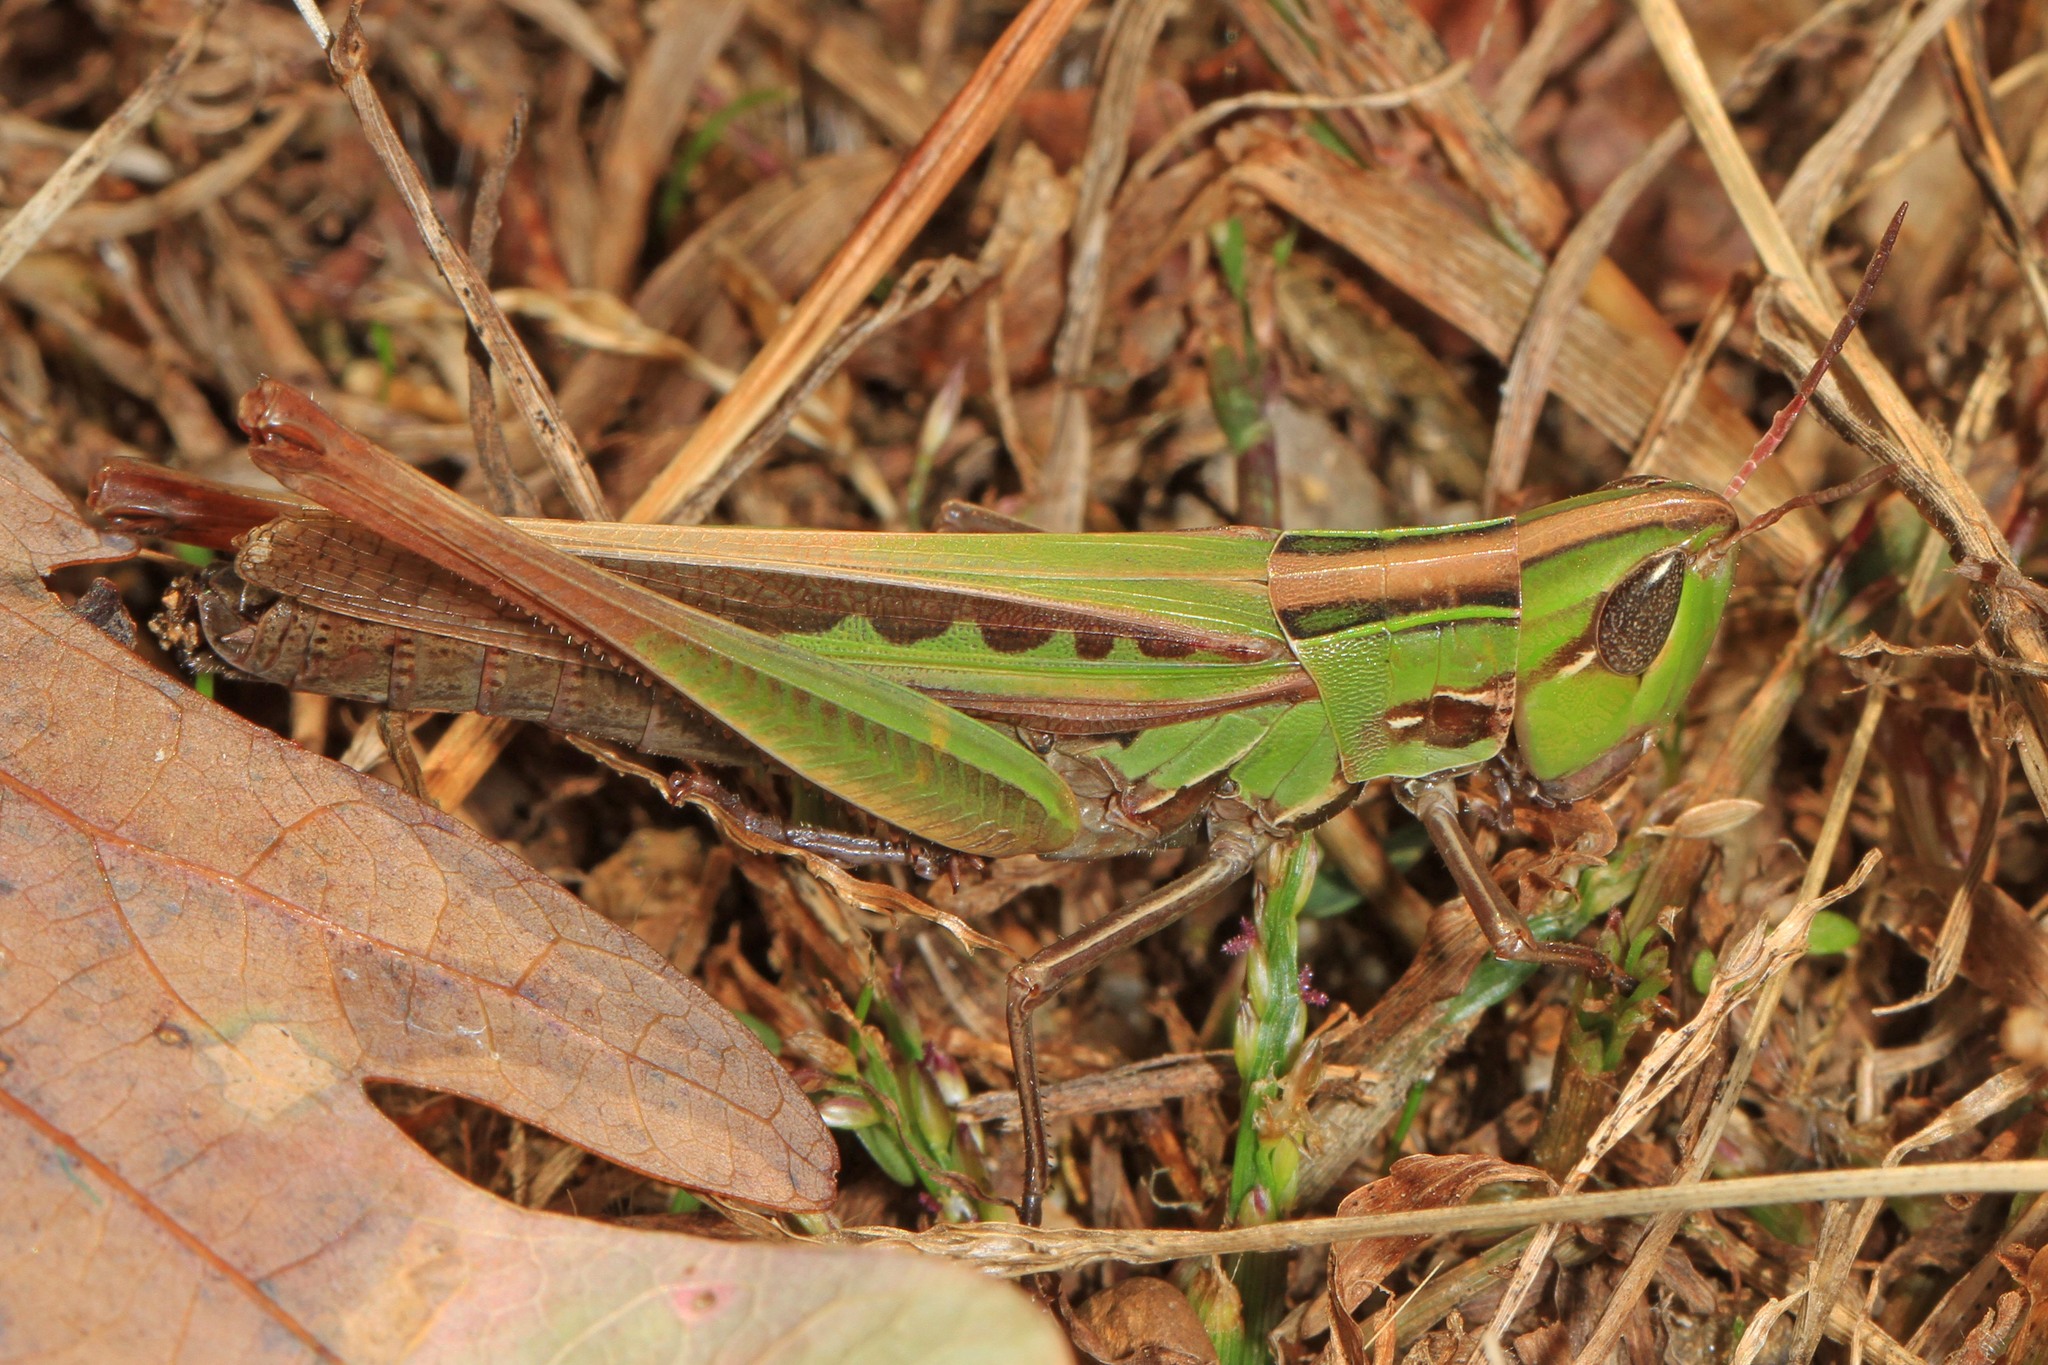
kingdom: Animalia
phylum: Arthropoda
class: Insecta
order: Orthoptera
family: Acrididae
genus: Syrbula
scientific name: Syrbula admirabilis
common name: Handsome grasshopper
